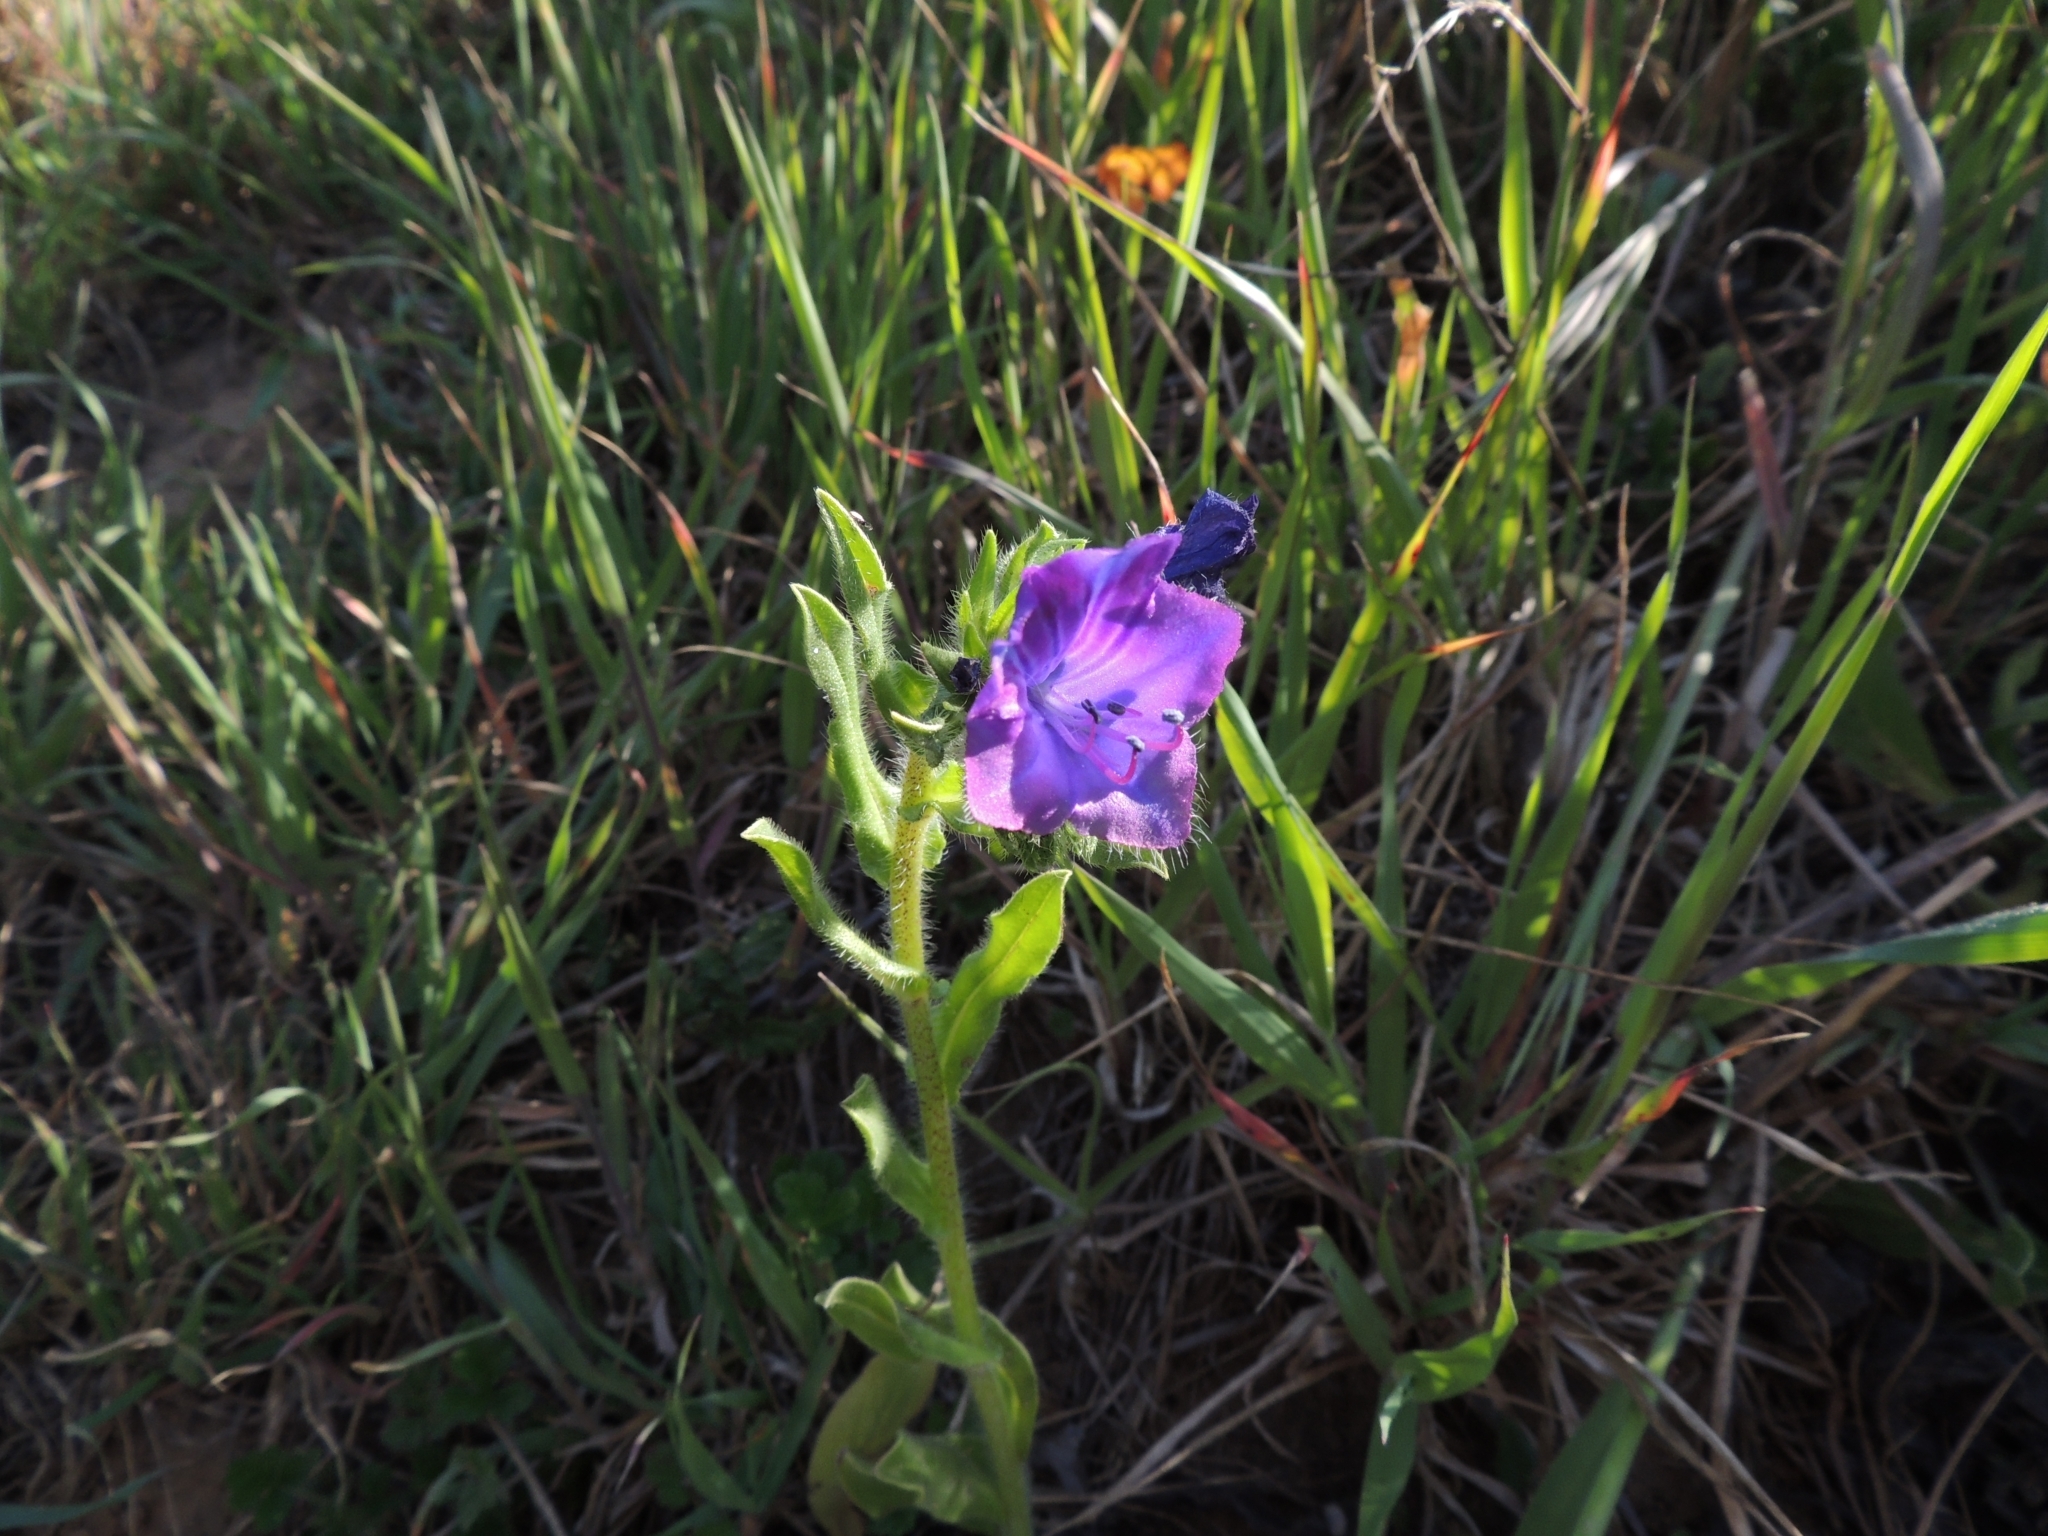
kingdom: Plantae
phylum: Tracheophyta
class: Magnoliopsida
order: Boraginales
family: Boraginaceae
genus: Echium
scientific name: Echium plantagineum
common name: Purple viper's-bugloss
